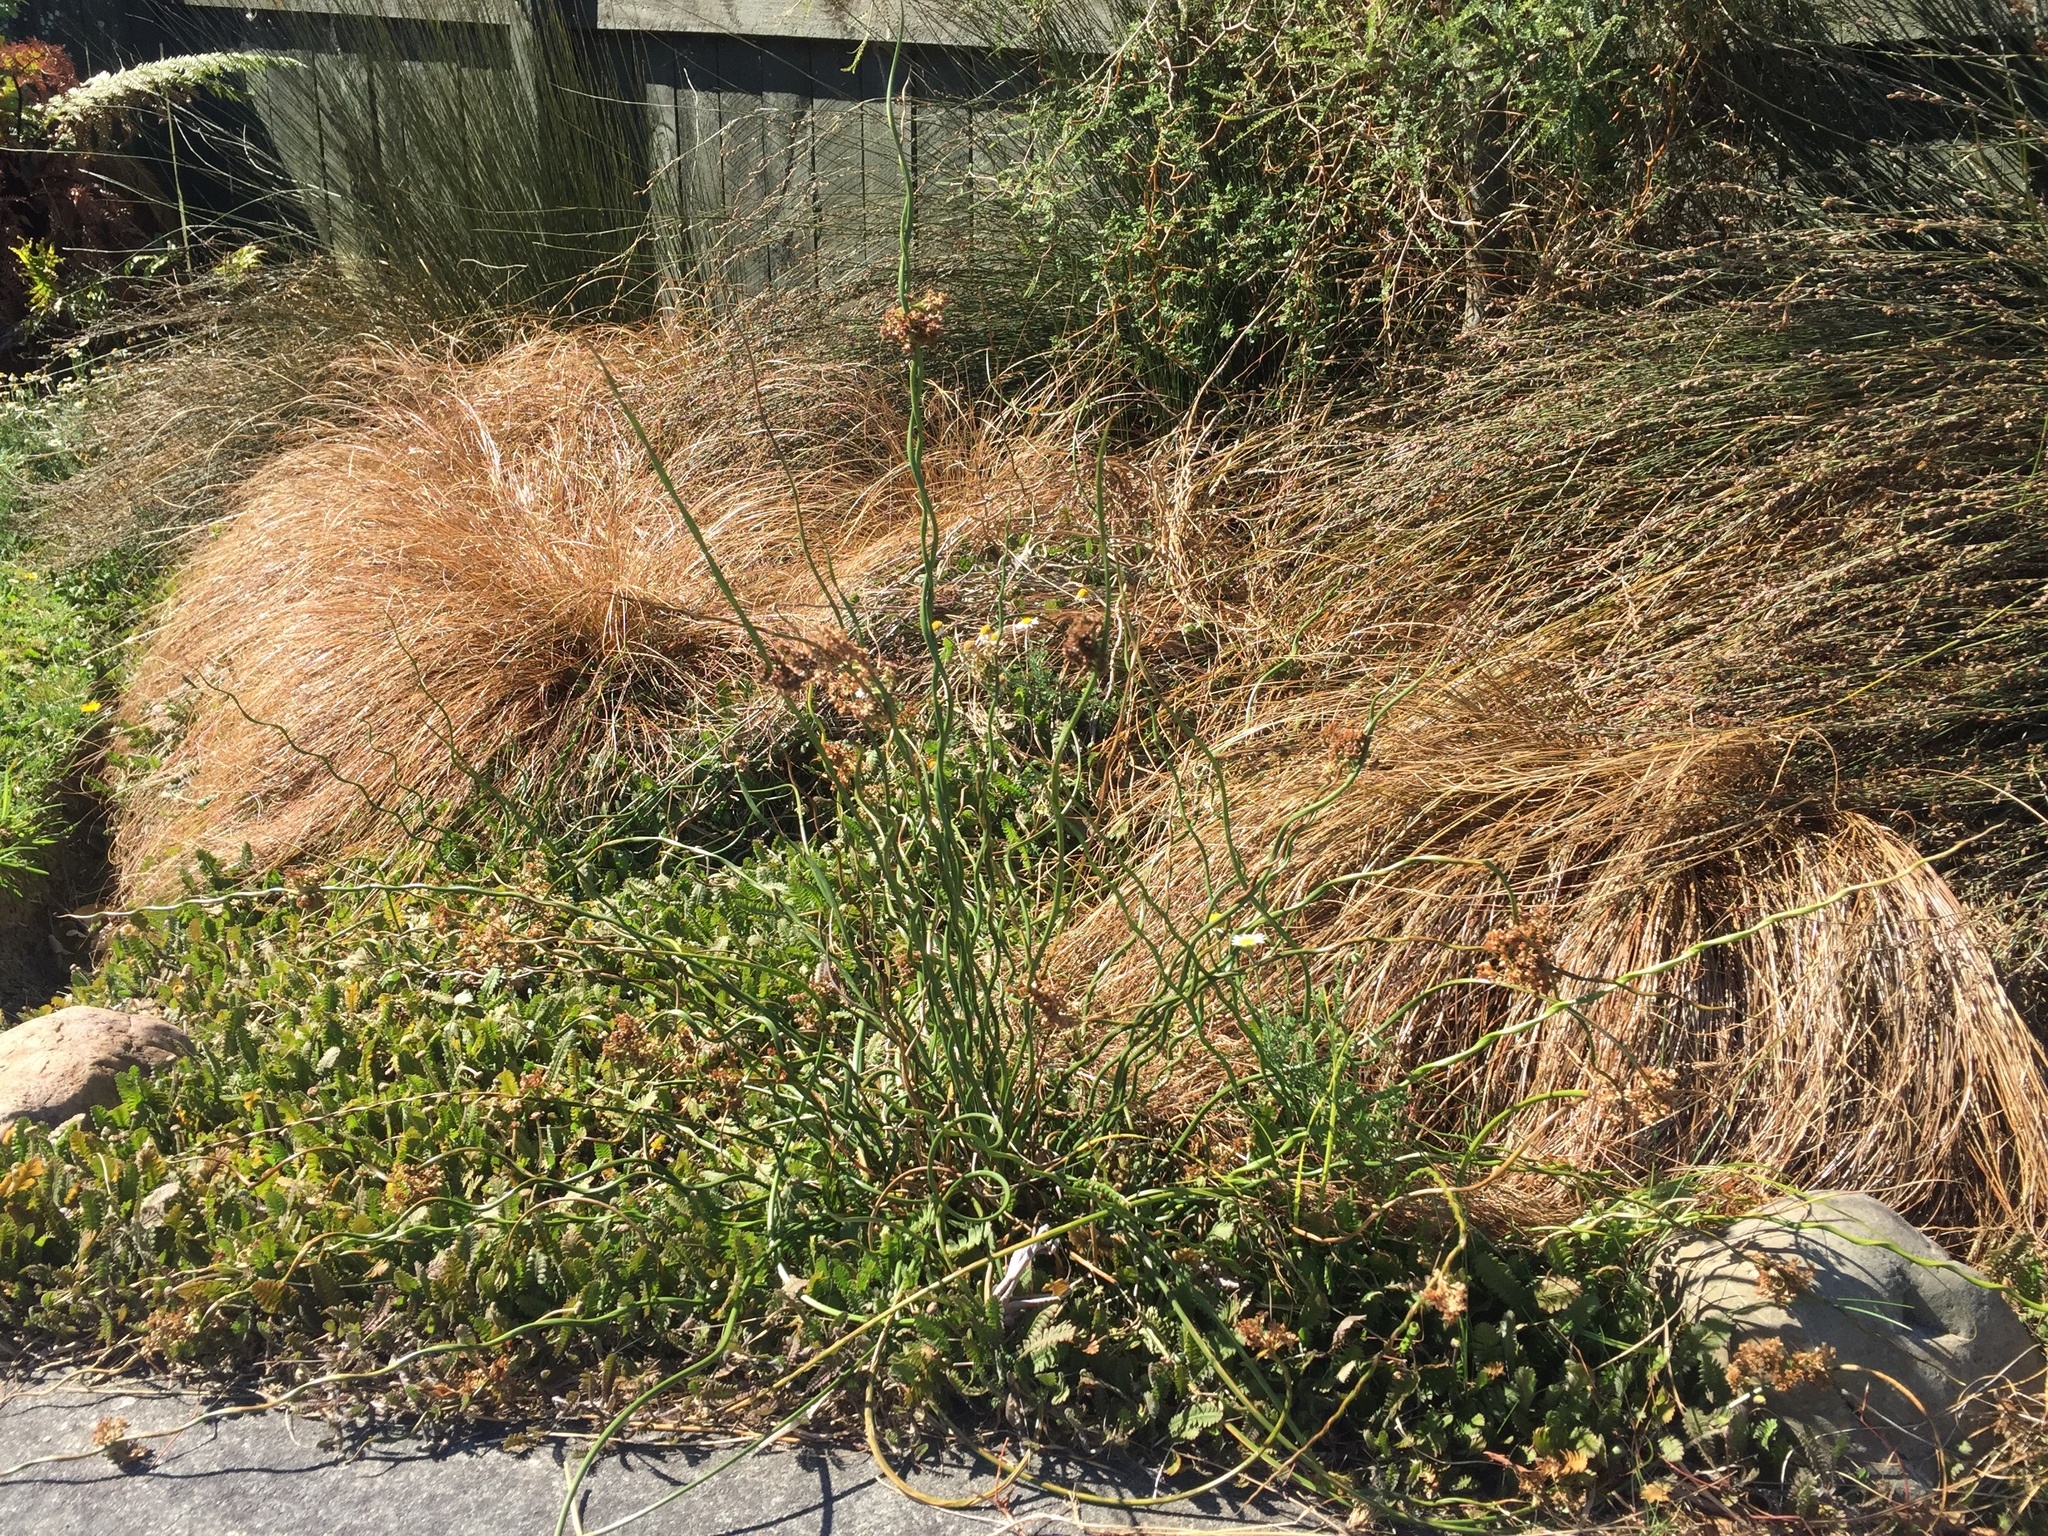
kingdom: Plantae
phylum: Tracheophyta
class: Liliopsida
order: Poales
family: Juncaceae
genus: Juncus
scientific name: Juncus effusus
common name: Soft rush
